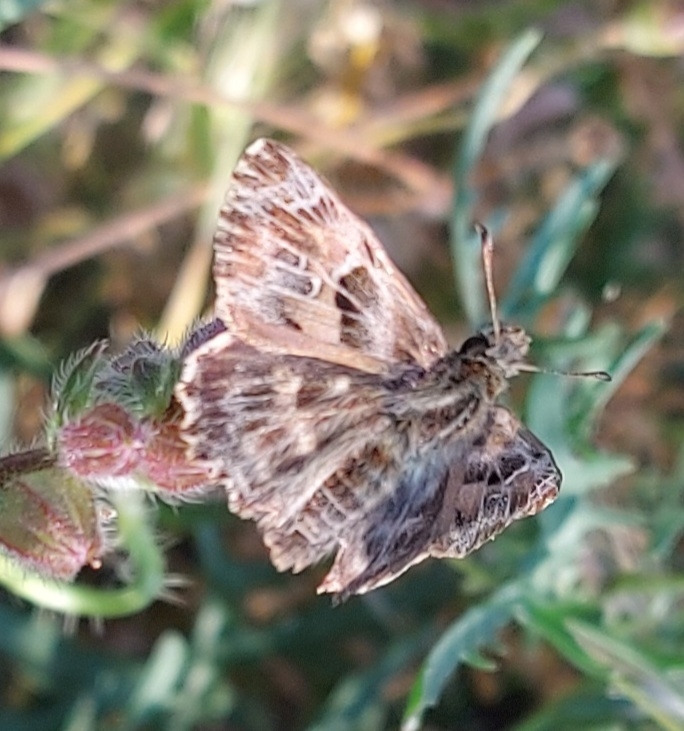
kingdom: Animalia
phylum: Arthropoda
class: Insecta
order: Lepidoptera
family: Hesperiidae
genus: Carcharodus
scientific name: Carcharodus alceae
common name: Mallow skipper
